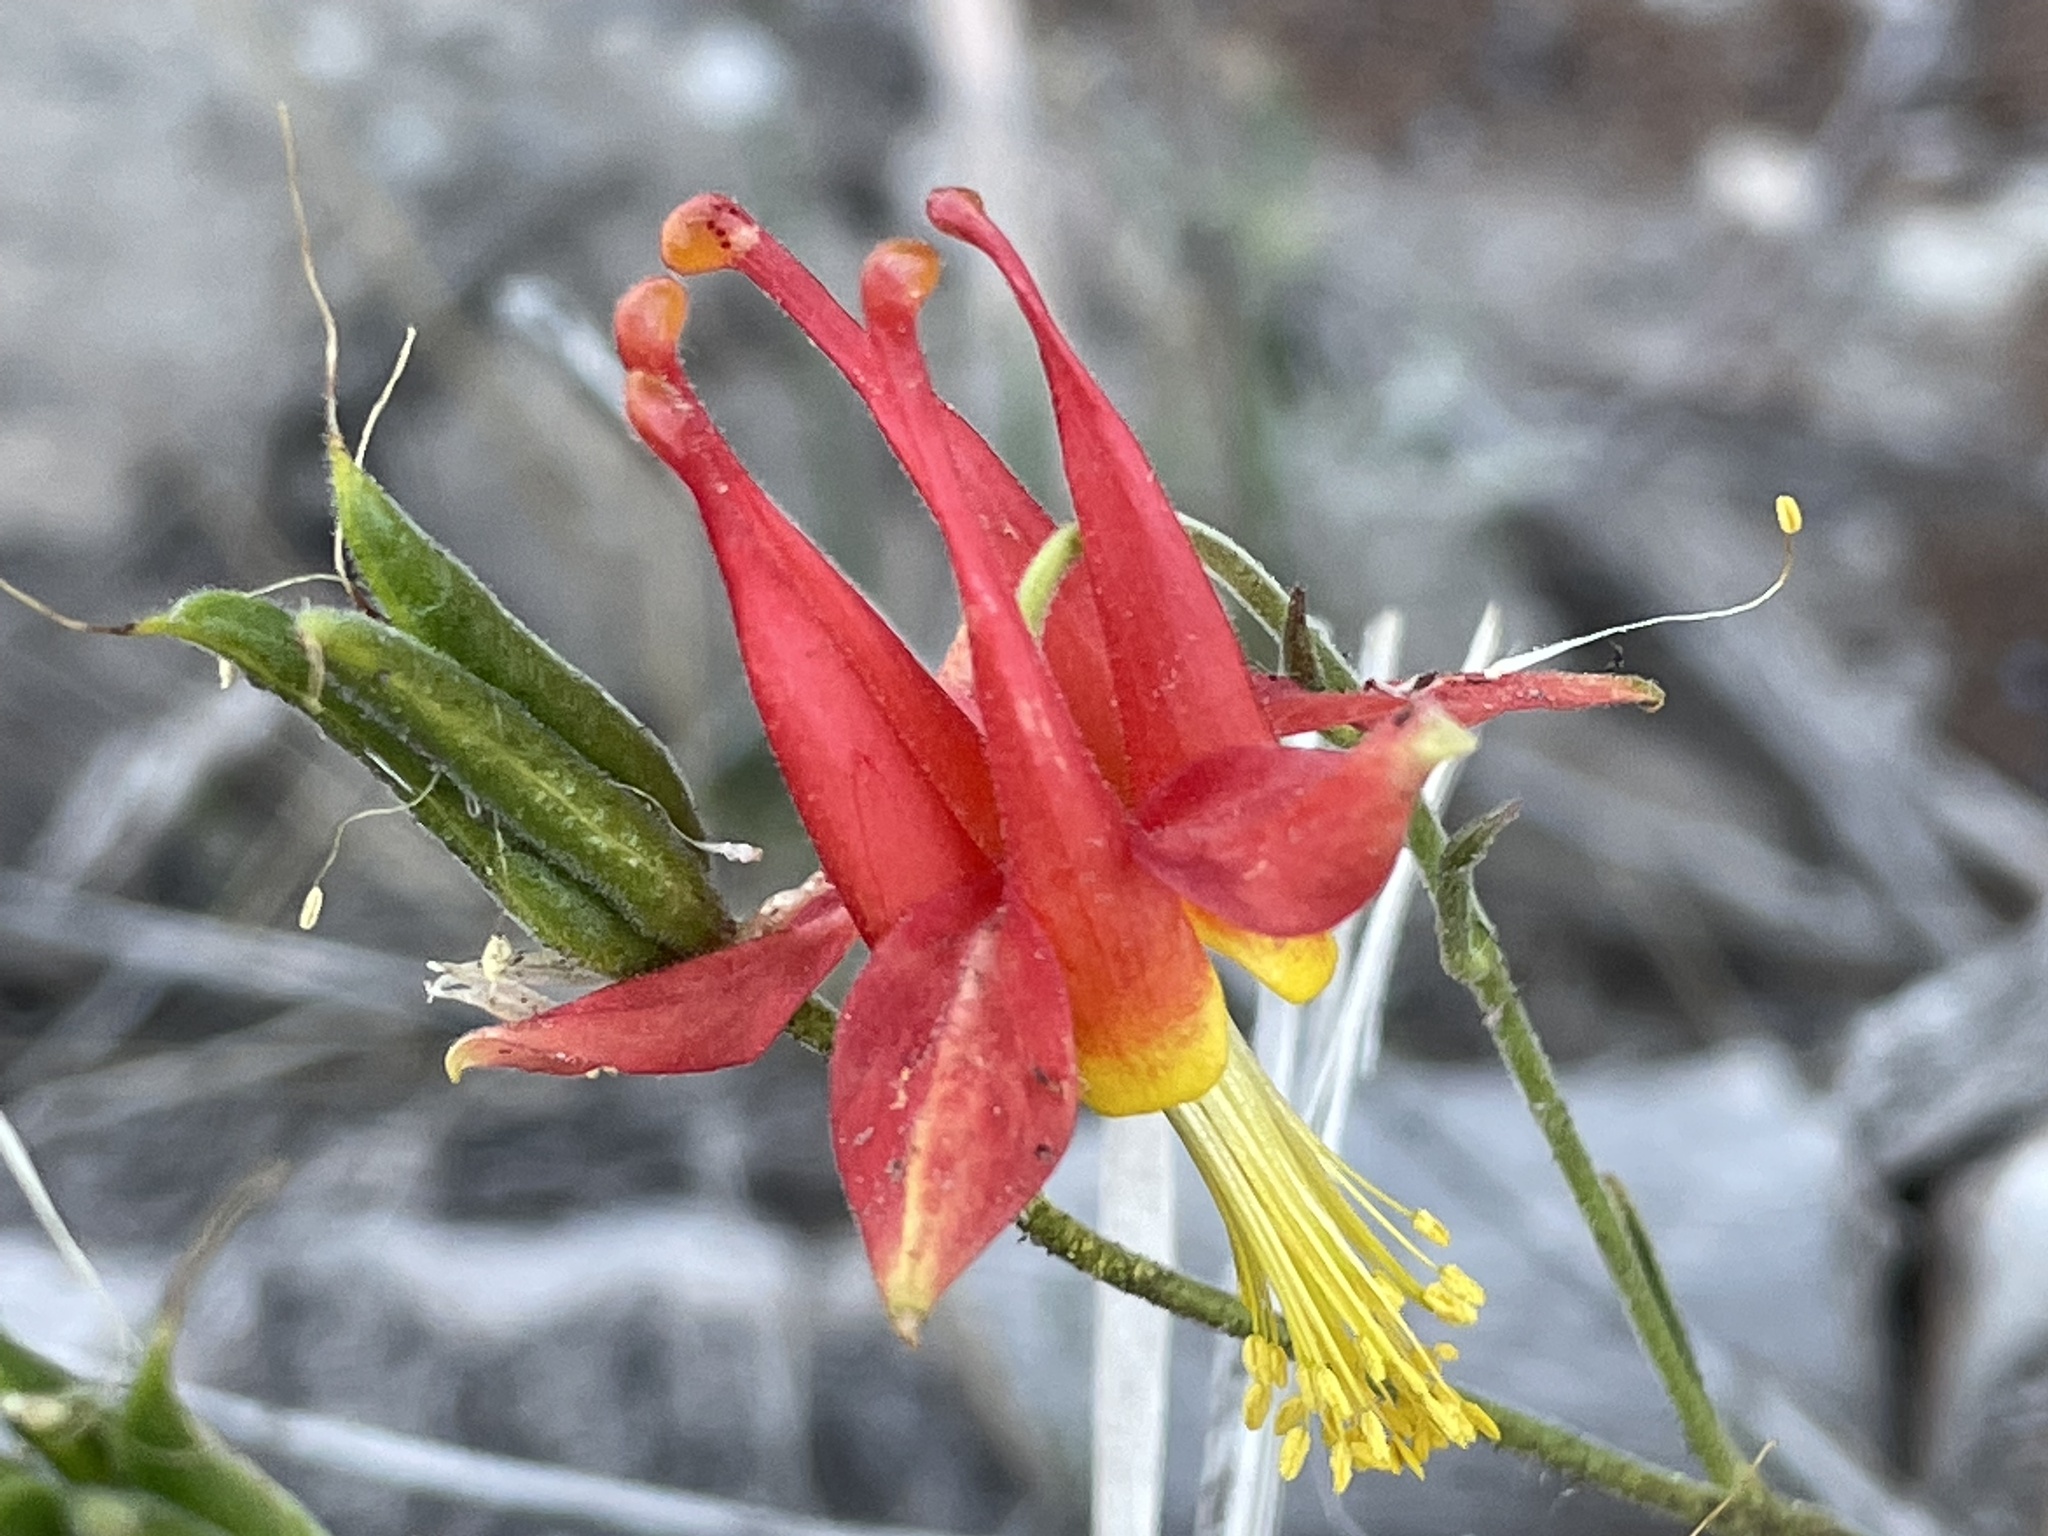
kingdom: Plantae
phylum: Tracheophyta
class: Magnoliopsida
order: Ranunculales
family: Ranunculaceae
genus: Aquilegia
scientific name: Aquilegia formosa
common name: Sitka columbine
